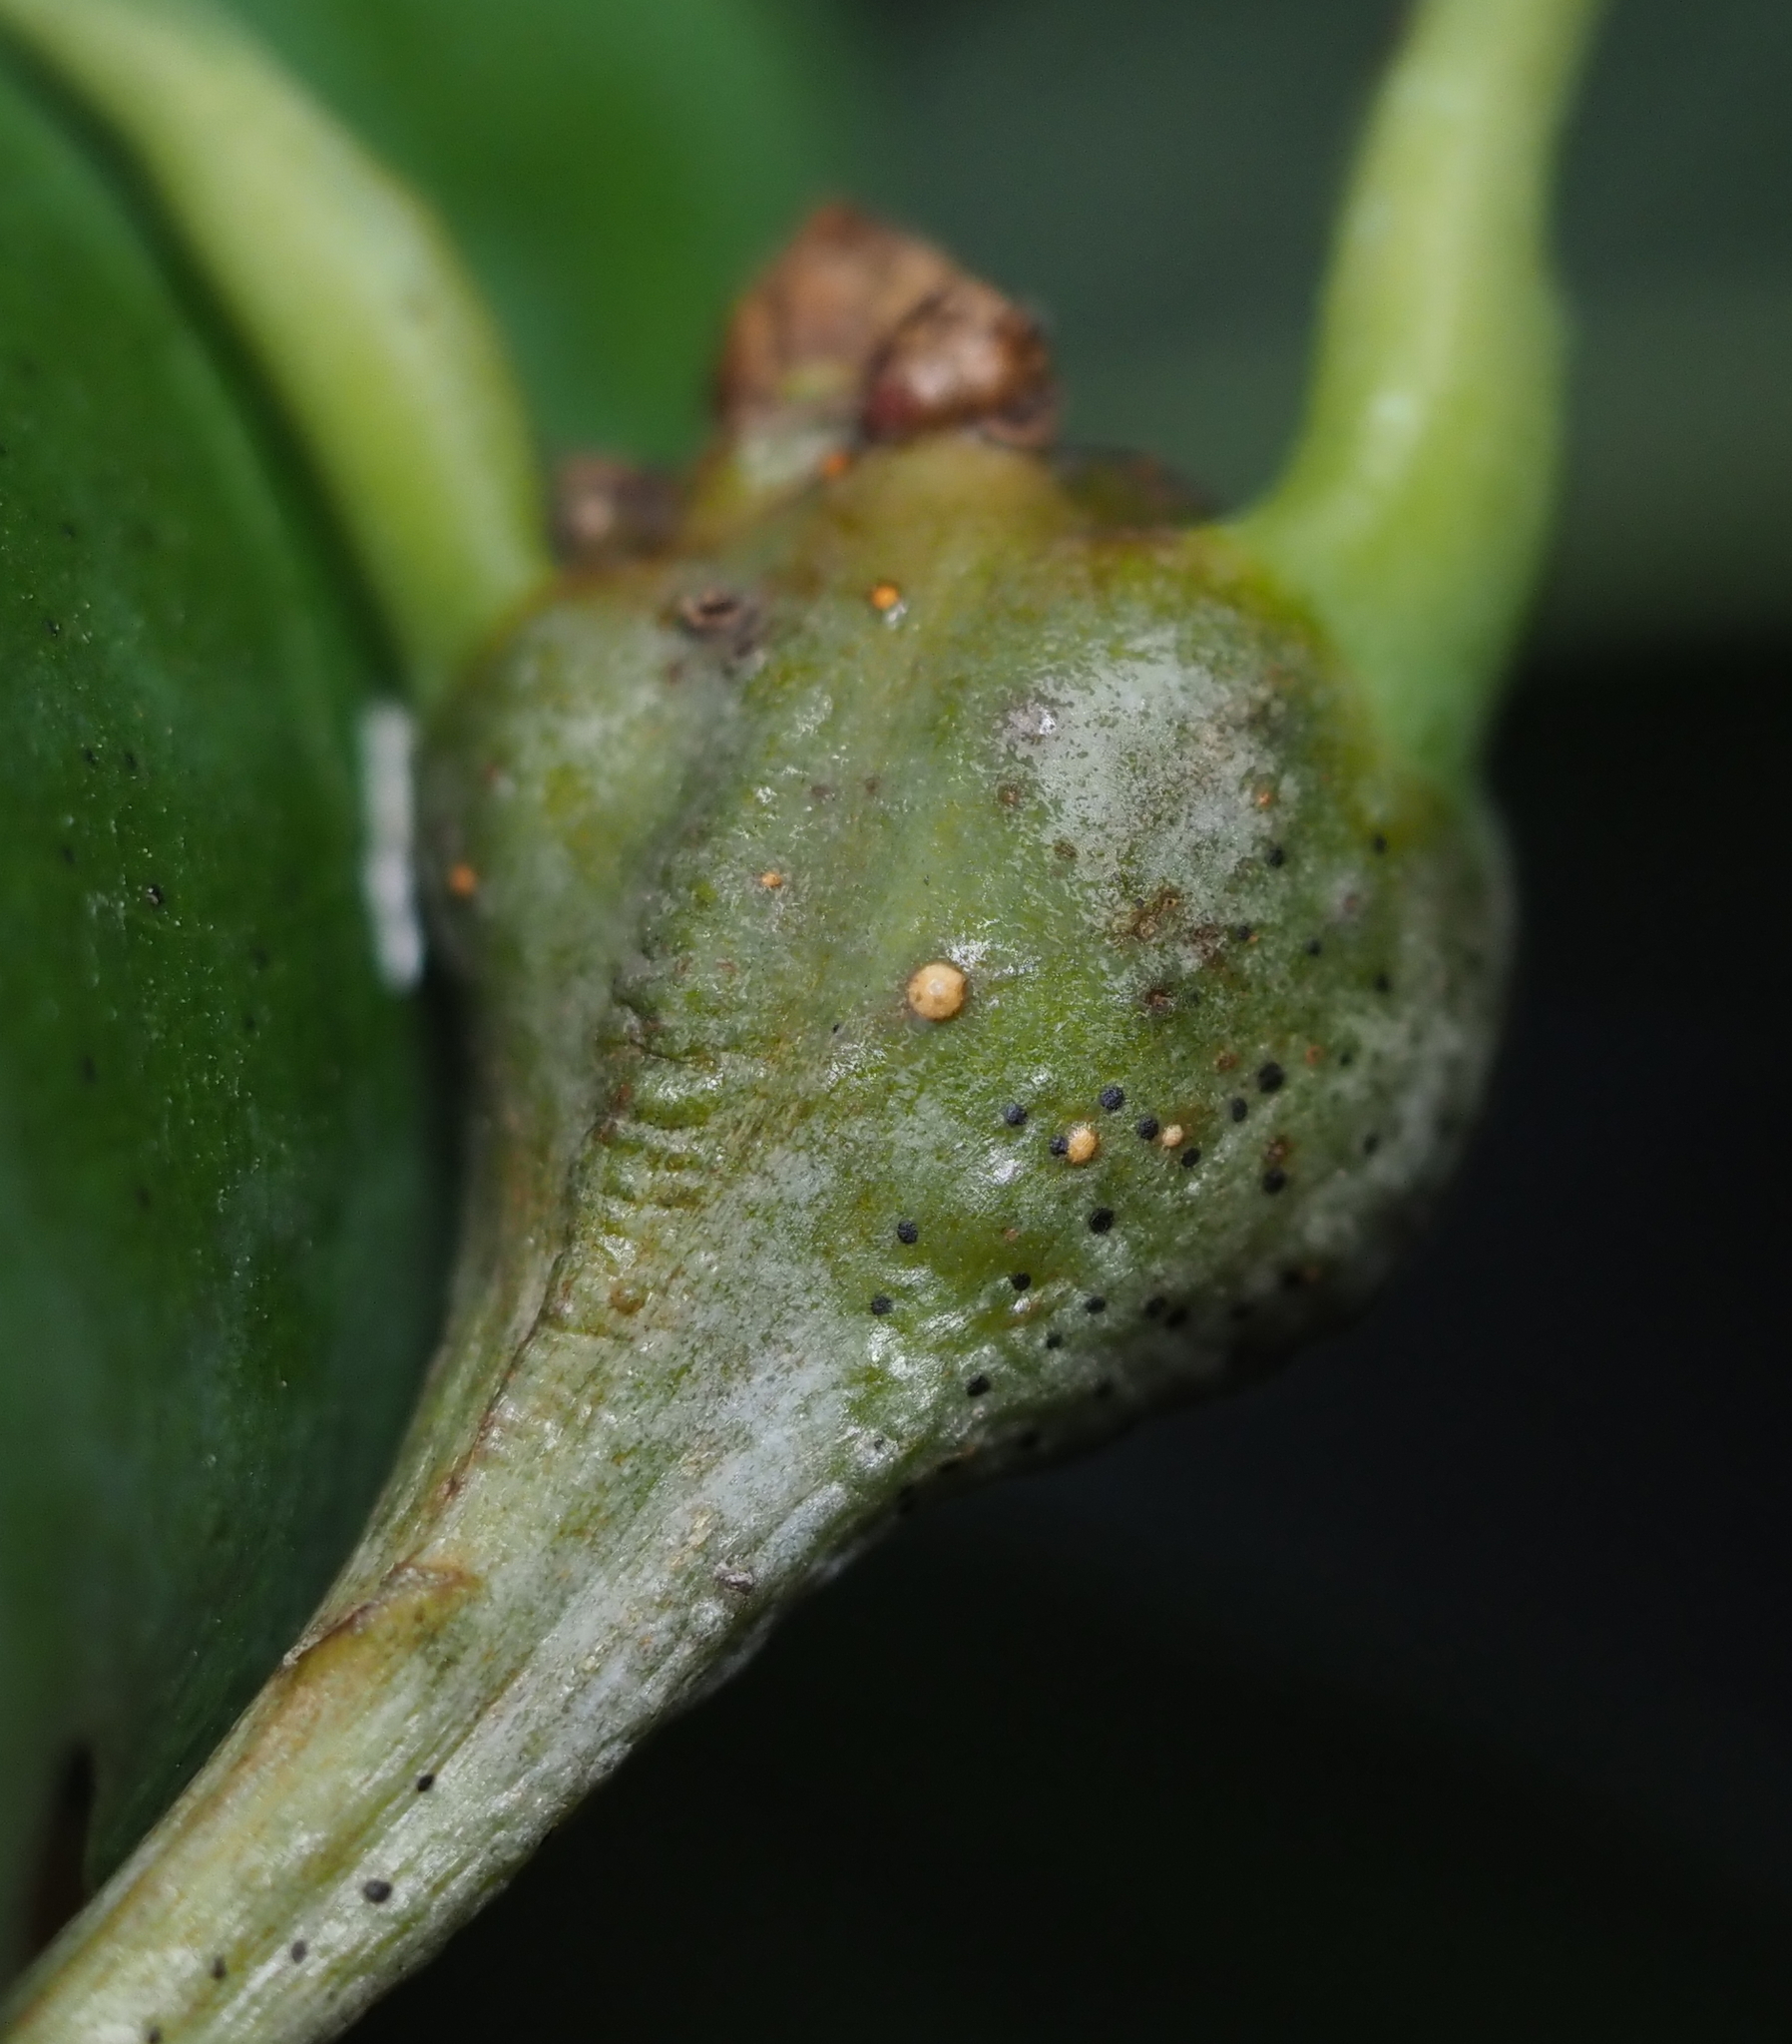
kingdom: Animalia
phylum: Arthropoda
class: Insecta
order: Hymenoptera
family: Cynipidae
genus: Callirhytis
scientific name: Callirhytis clavula
